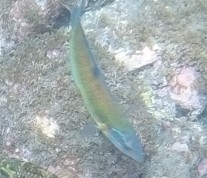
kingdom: Animalia
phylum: Chordata
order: Perciformes
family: Labridae
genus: Thalassoma
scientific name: Thalassoma pavo
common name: Ornate wrasse
